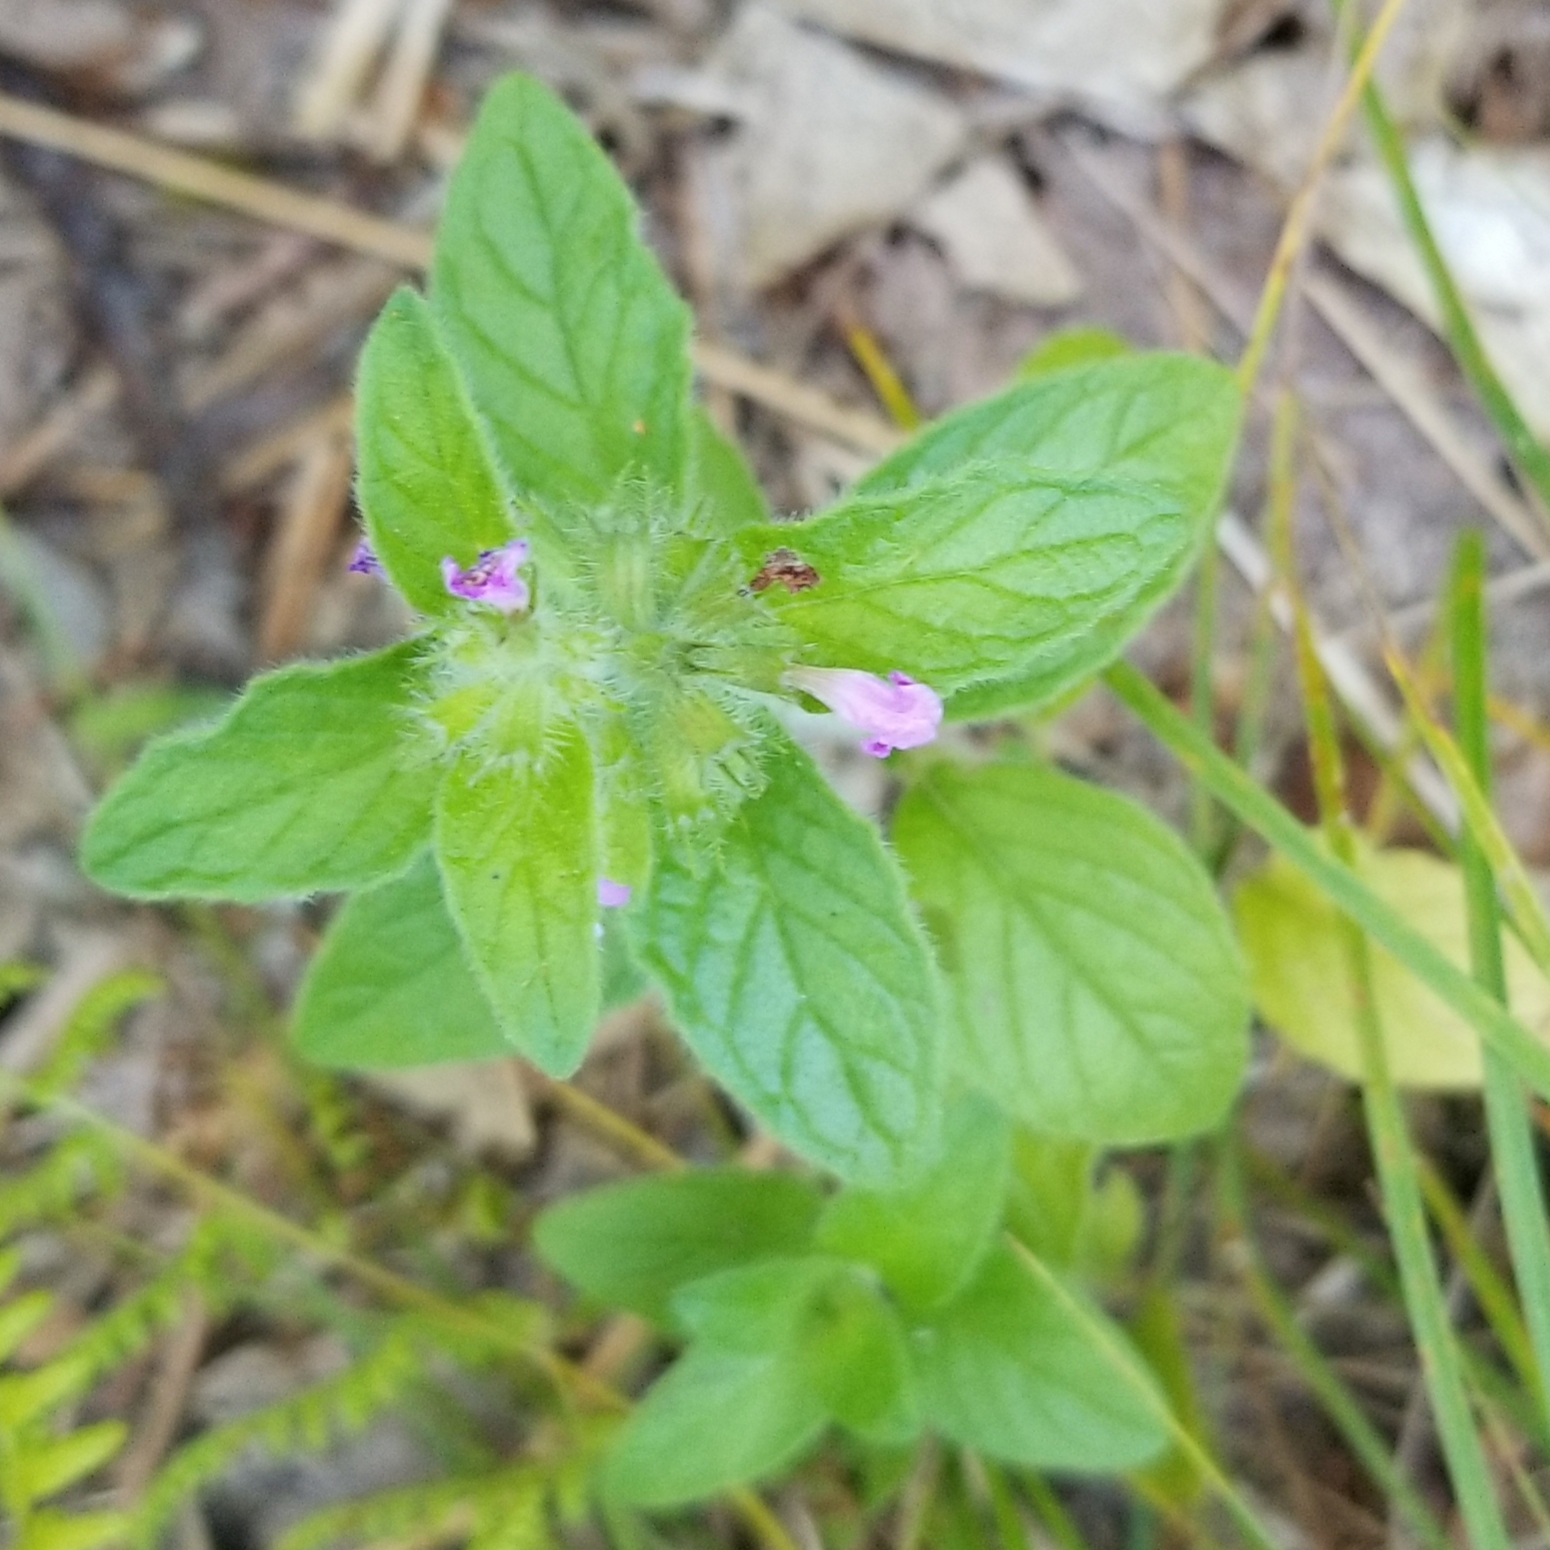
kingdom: Plantae
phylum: Tracheophyta
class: Magnoliopsida
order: Lamiales
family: Lamiaceae
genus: Clinopodium
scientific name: Clinopodium vulgare
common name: Wild basil
